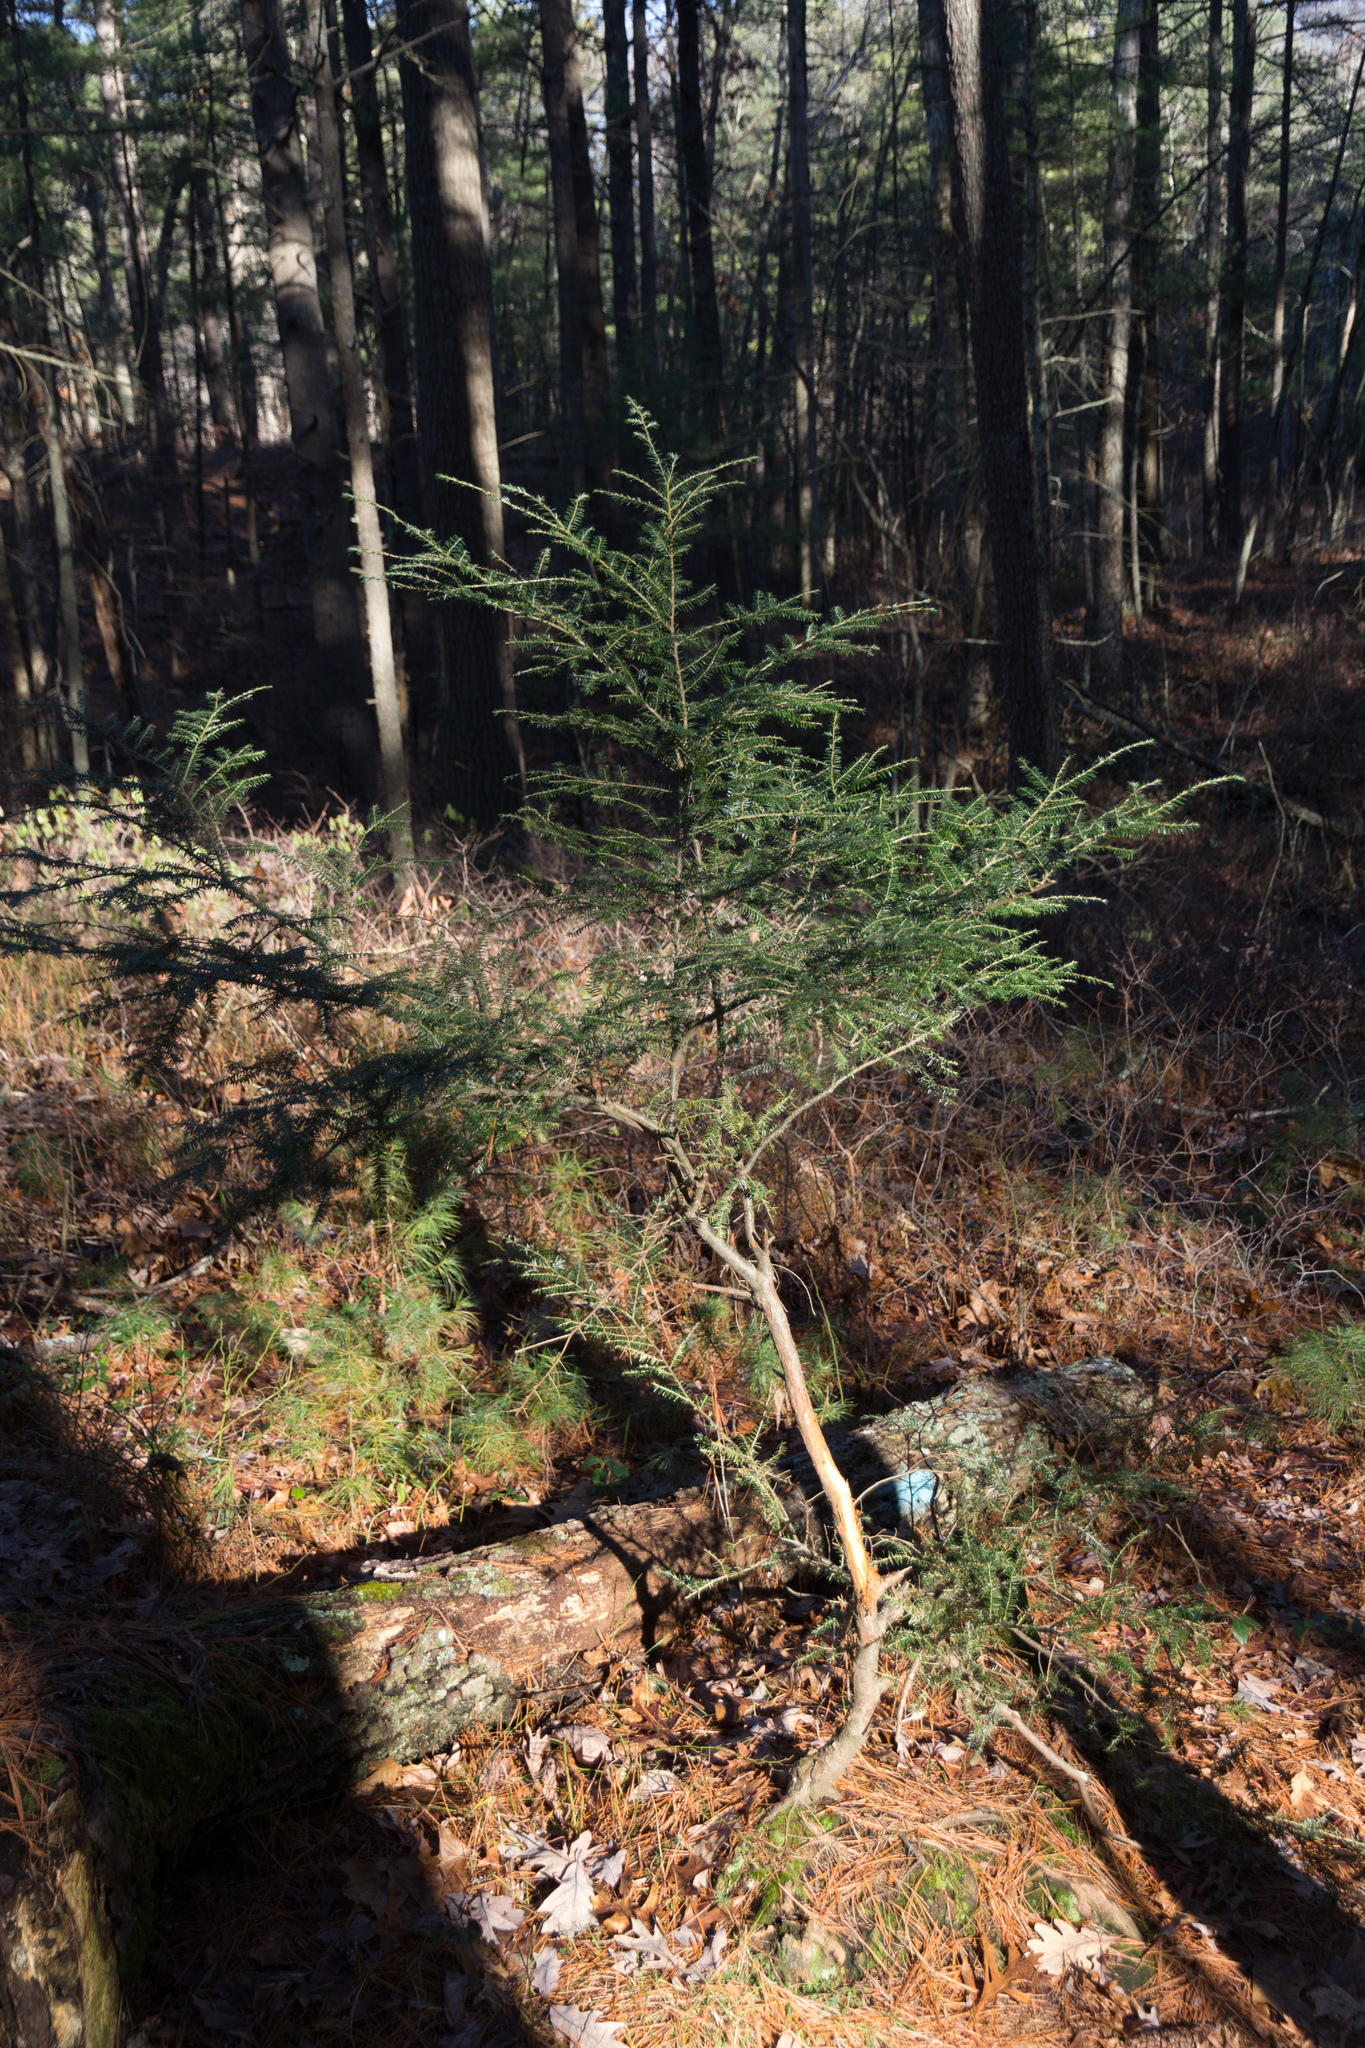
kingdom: Plantae
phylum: Tracheophyta
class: Pinopsida
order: Pinales
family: Pinaceae
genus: Tsuga
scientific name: Tsuga canadensis
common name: Eastern hemlock
